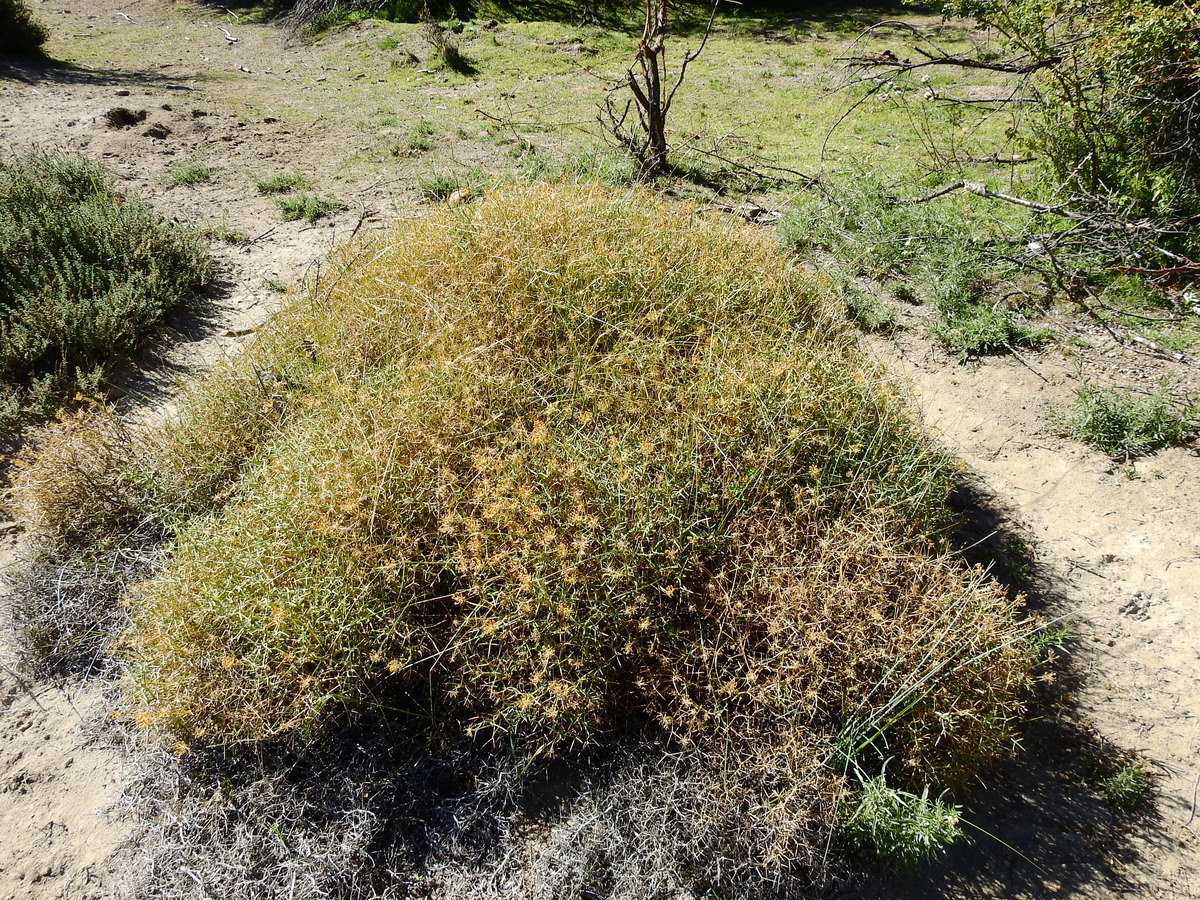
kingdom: Plantae
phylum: Tracheophyta
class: Magnoliopsida
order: Apiales
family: Apiaceae
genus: Azorella
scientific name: Azorella prolifera
